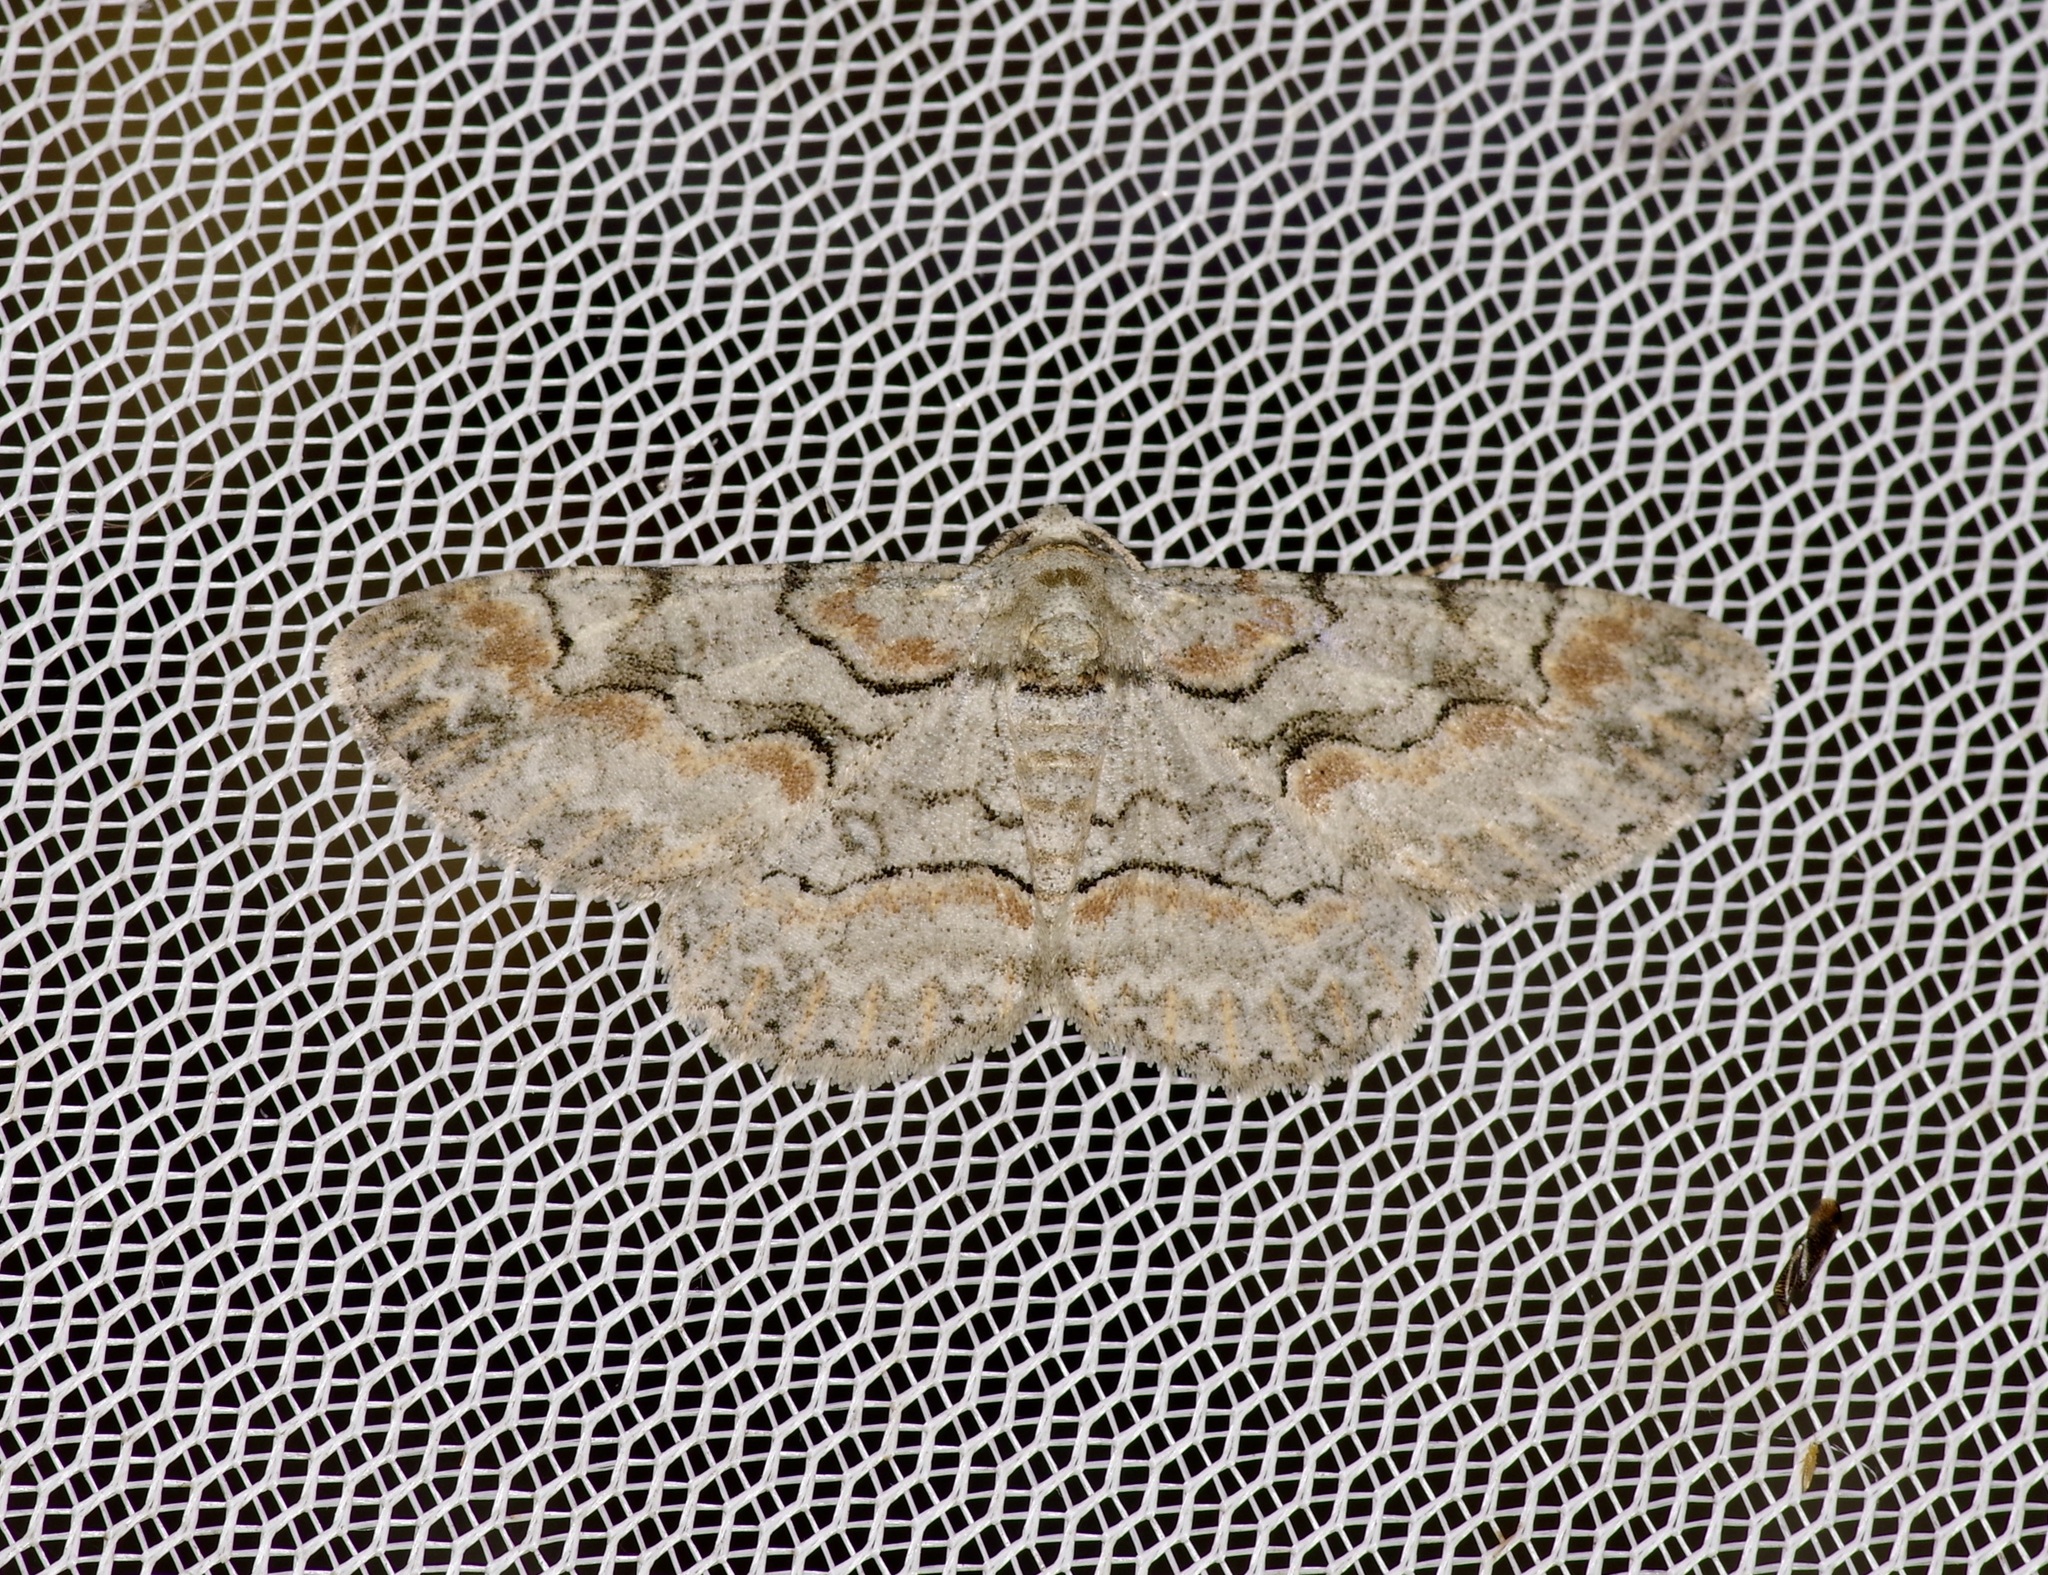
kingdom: Animalia
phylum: Arthropoda
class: Insecta
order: Lepidoptera
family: Geometridae
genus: Iridopsis
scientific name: Iridopsis defectaria
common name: Brown-shaded gray
